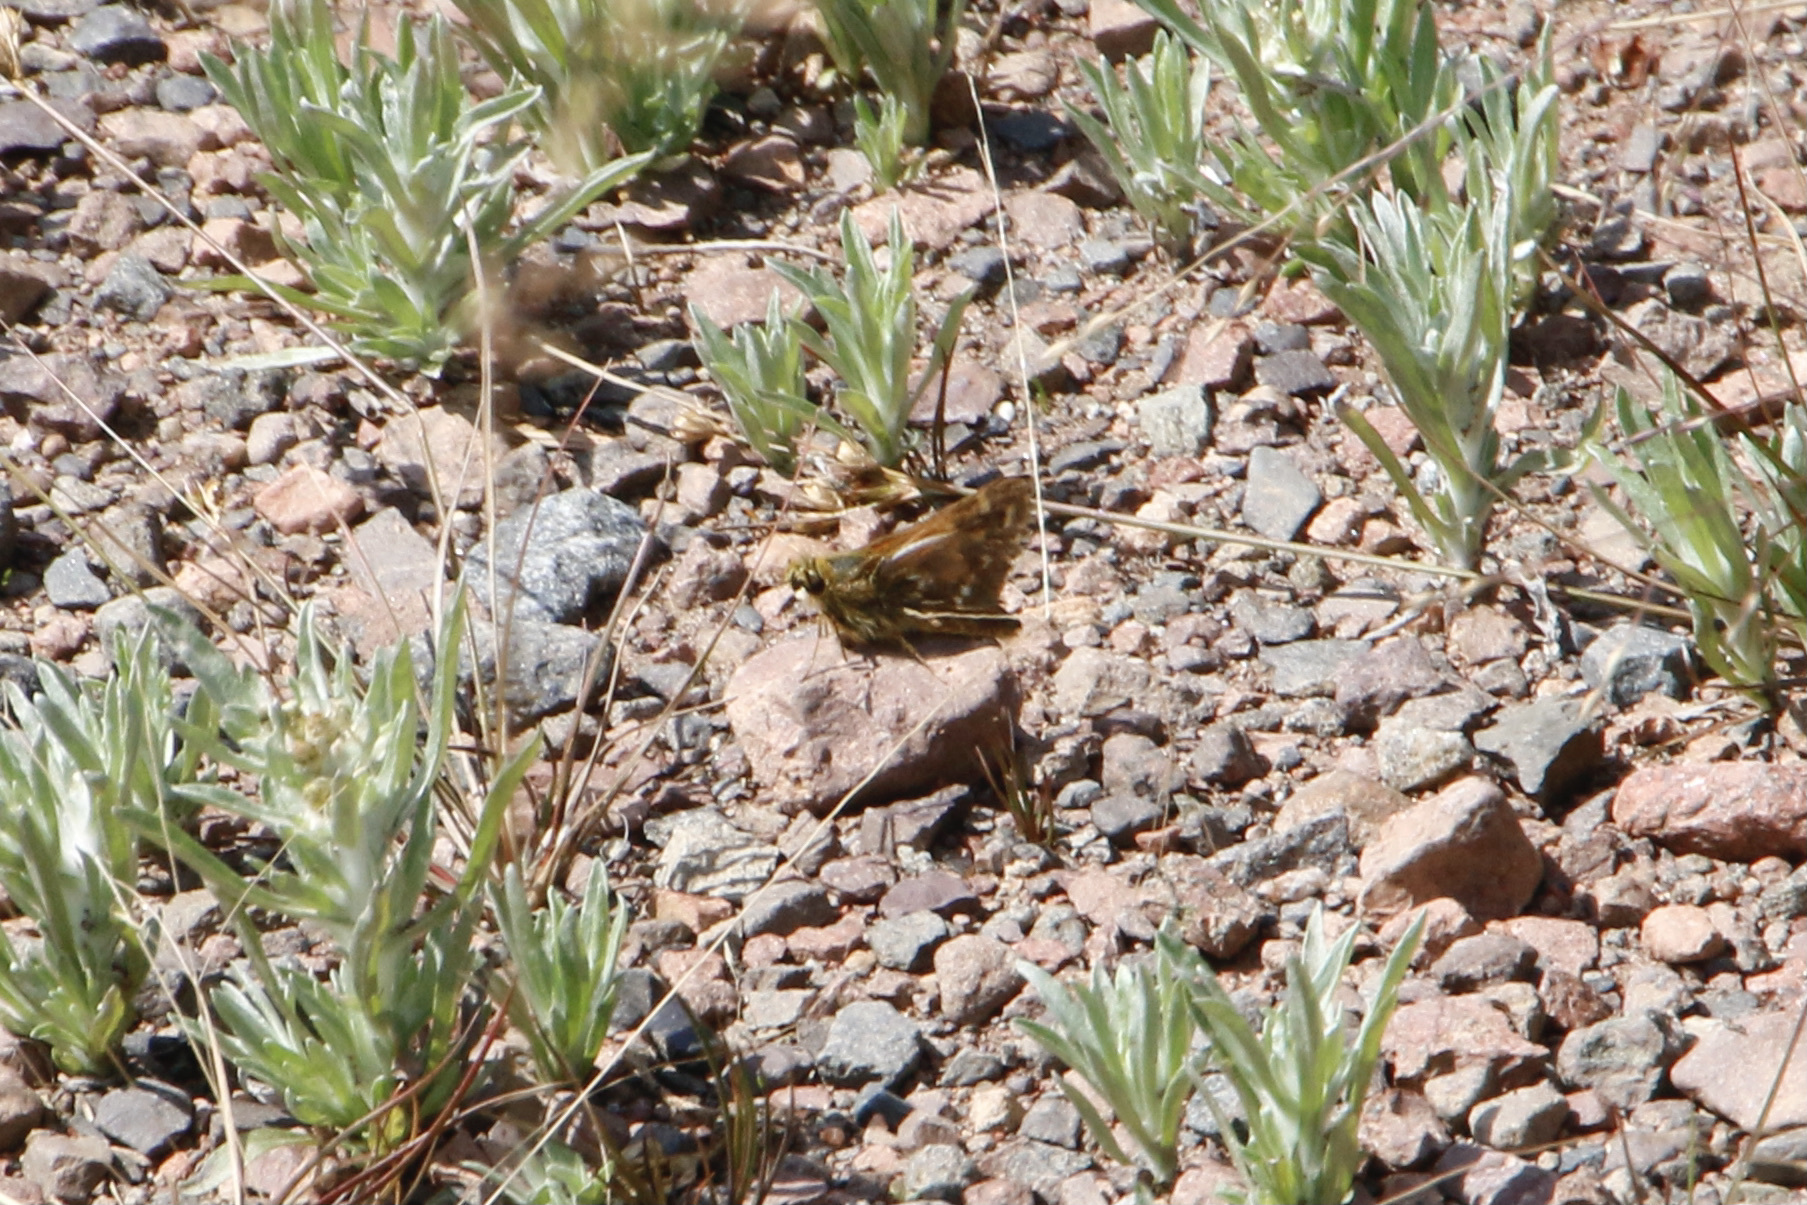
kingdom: Animalia
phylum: Arthropoda
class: Insecta
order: Lepidoptera
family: Hesperiidae
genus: Hesperia
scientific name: Hesperia comma
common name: Common branded skipper
